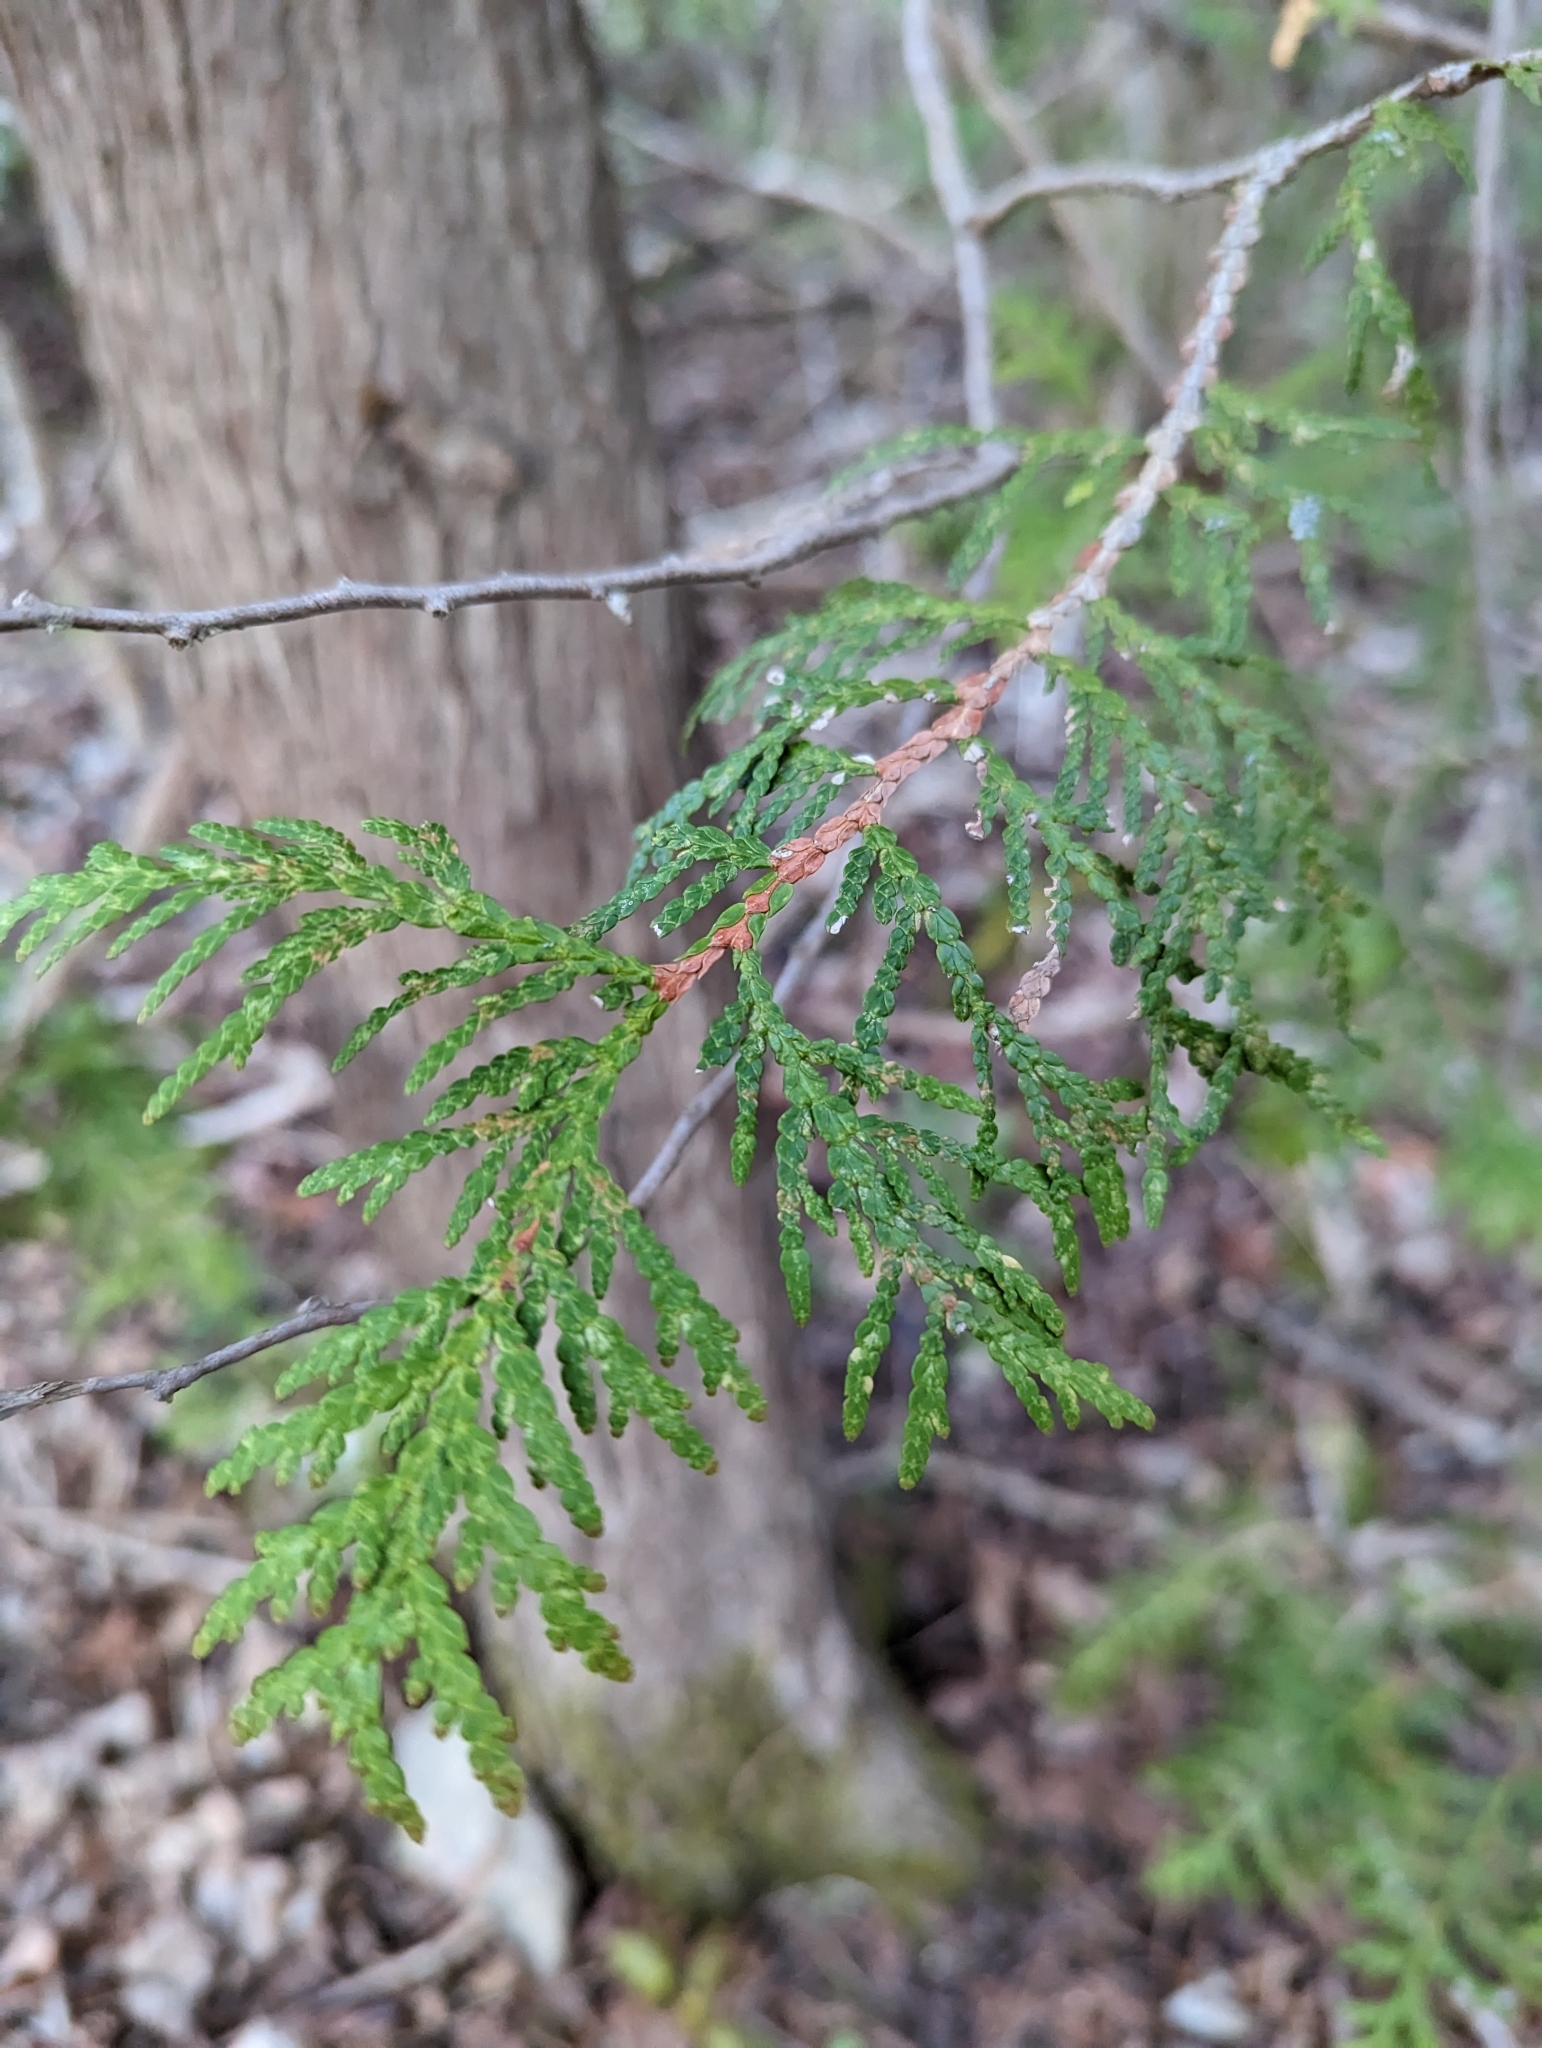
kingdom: Plantae
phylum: Tracheophyta
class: Pinopsida
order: Pinales
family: Cupressaceae
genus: Thuja
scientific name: Thuja occidentalis
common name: Northern white-cedar
